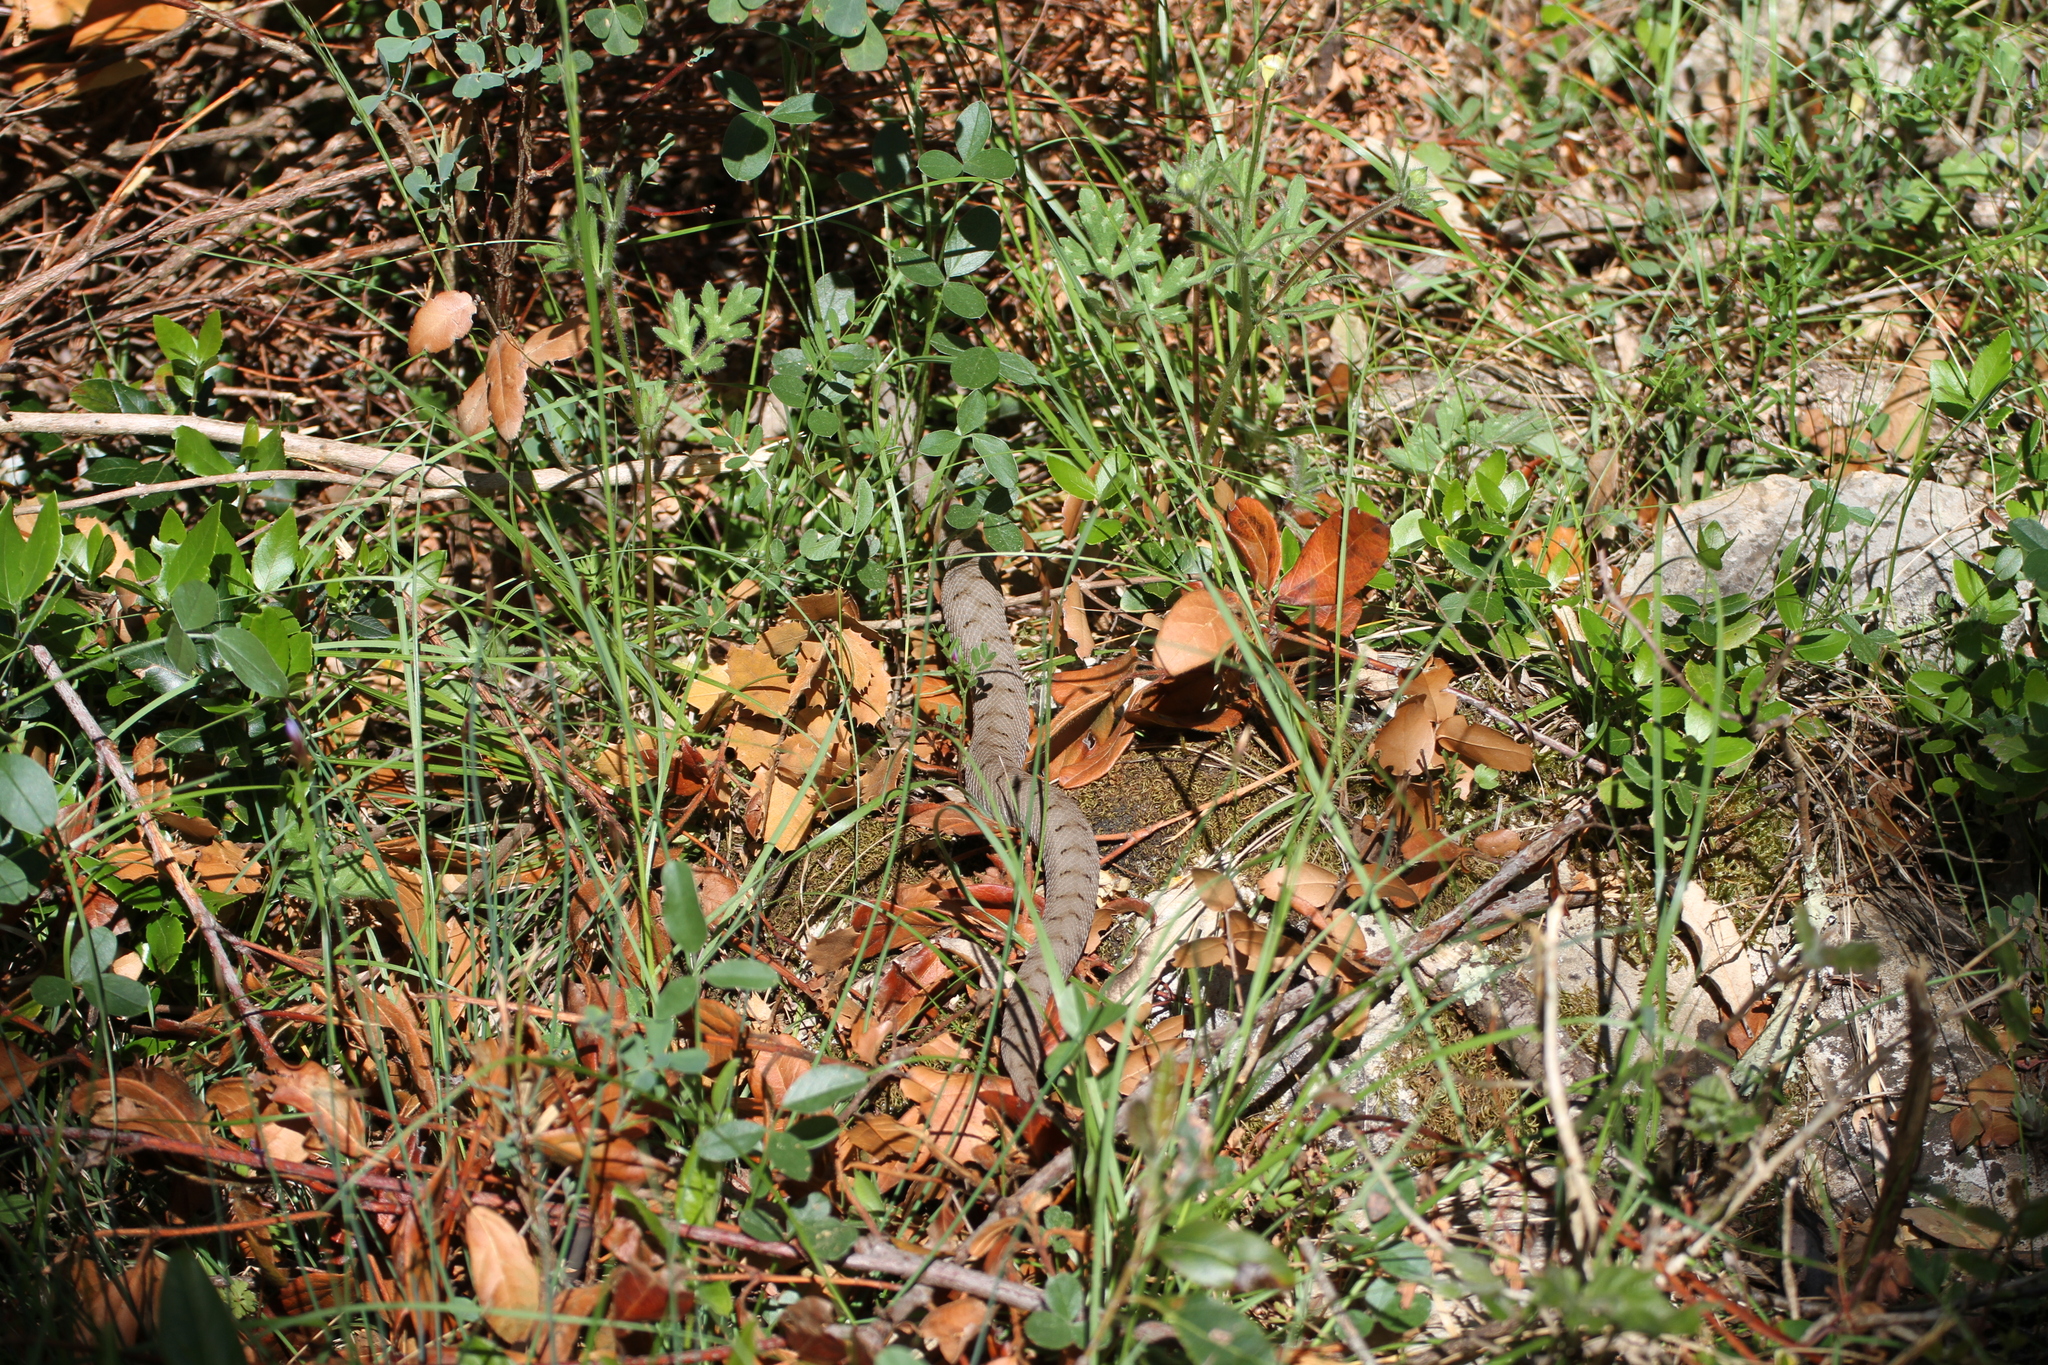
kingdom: Animalia
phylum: Chordata
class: Squamata
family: Viperidae
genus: Vipera
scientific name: Vipera aspis
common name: Asp viper
